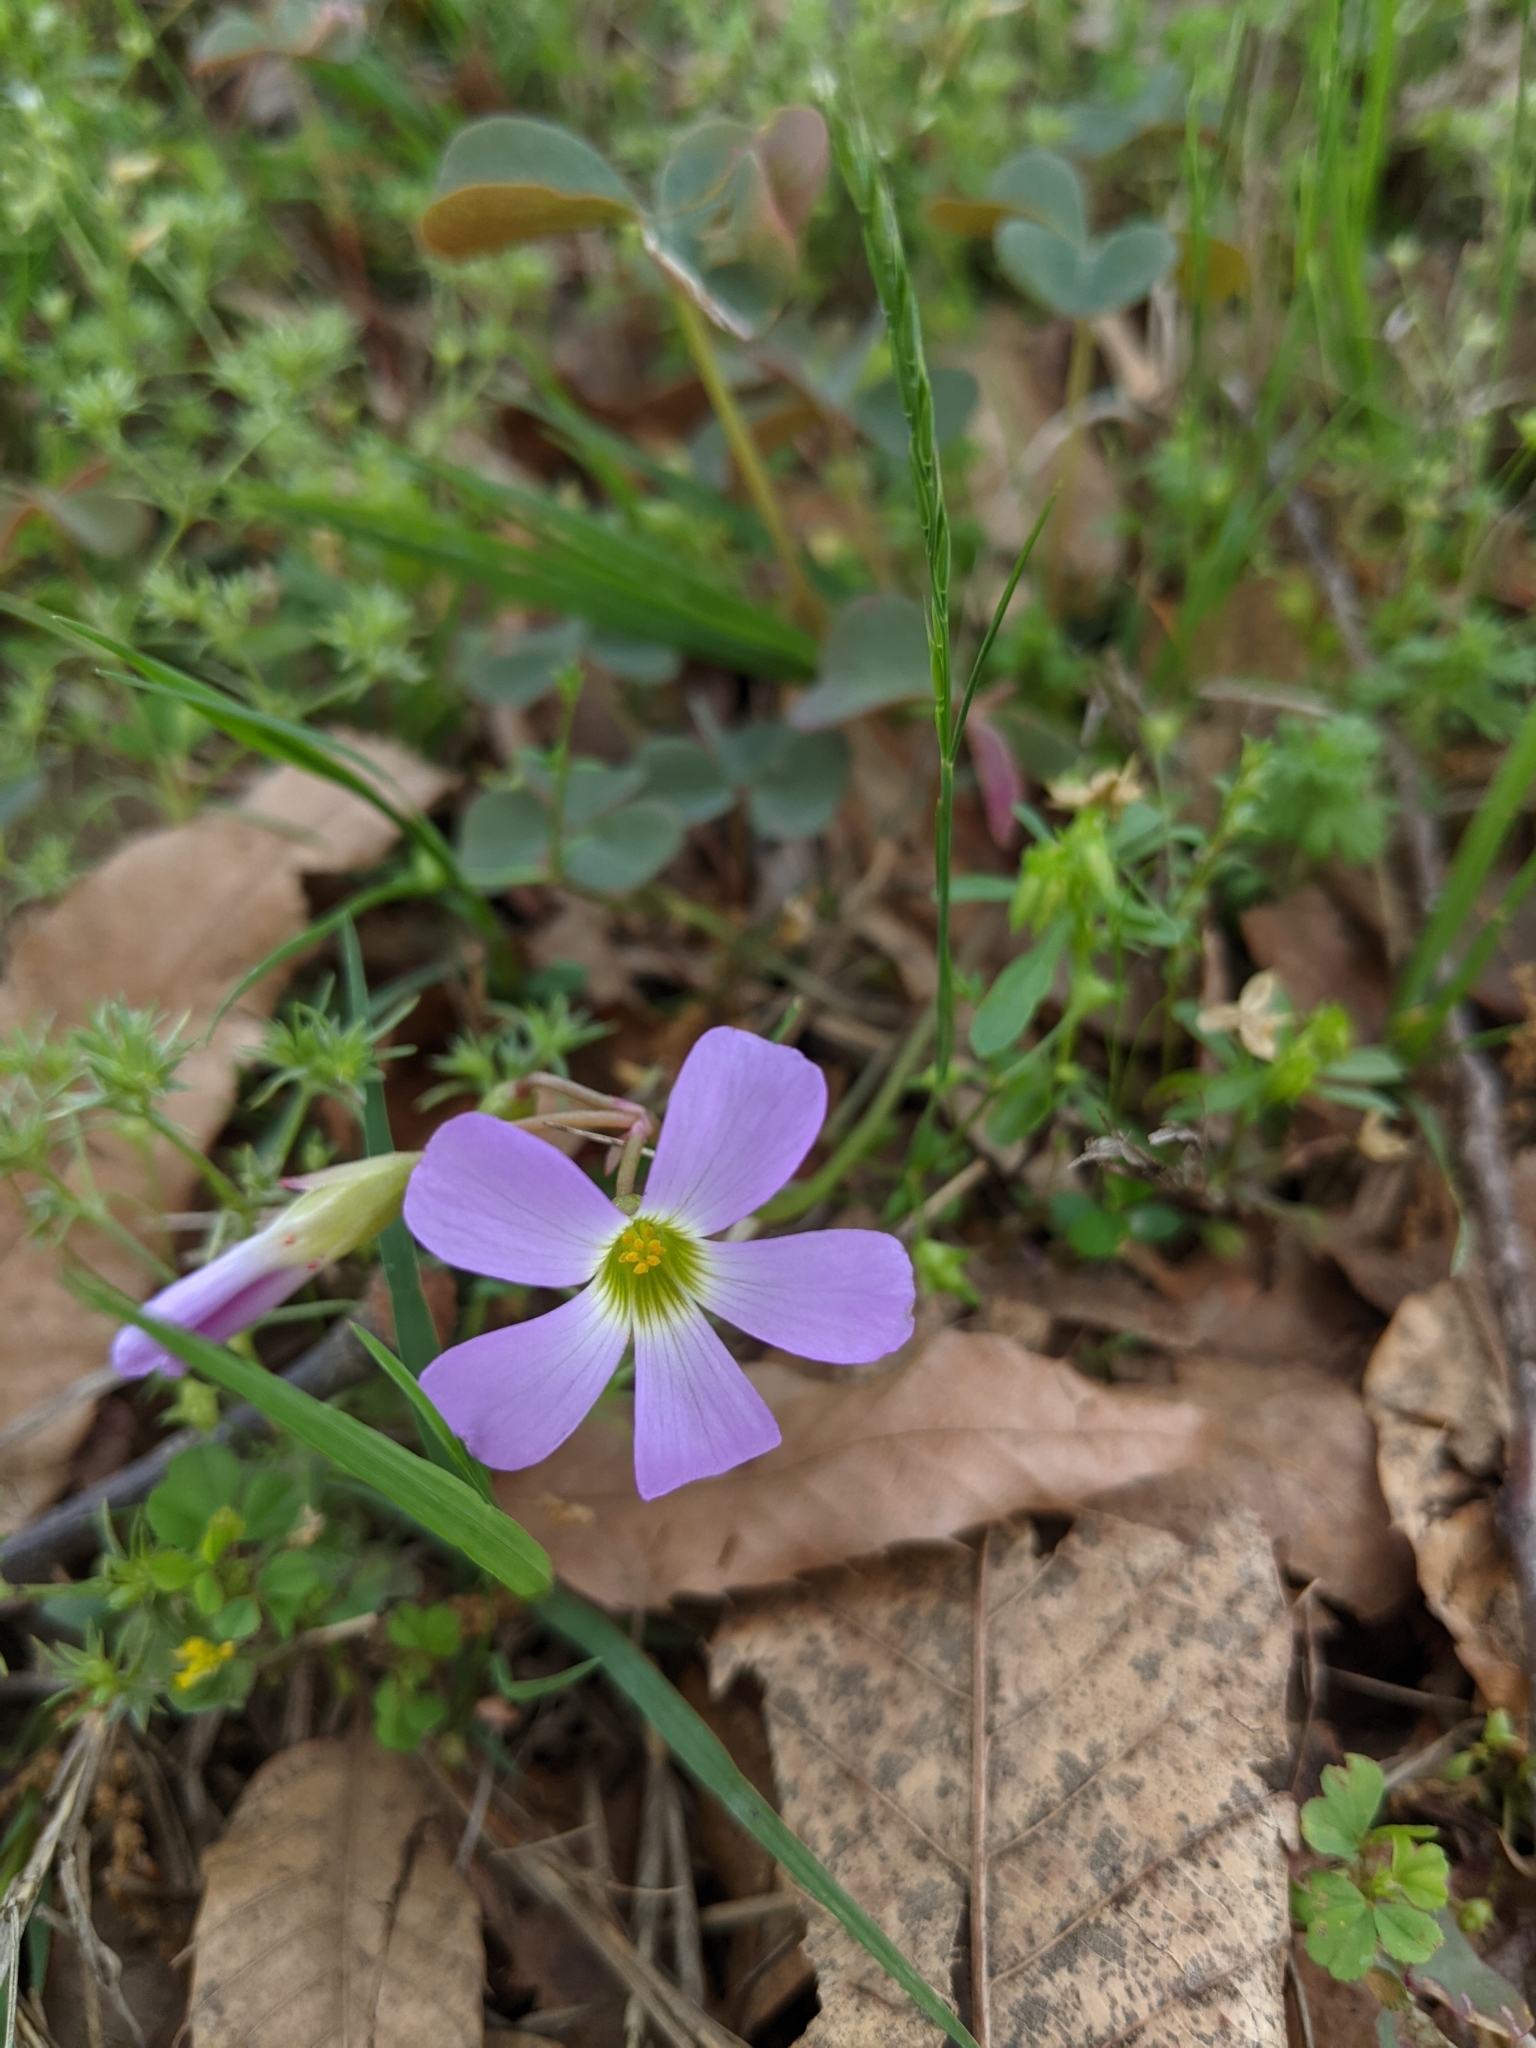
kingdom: Plantae
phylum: Tracheophyta
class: Magnoliopsida
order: Oxalidales
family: Oxalidaceae
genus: Oxalis
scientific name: Oxalis violacea
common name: Violet wood-sorrel
